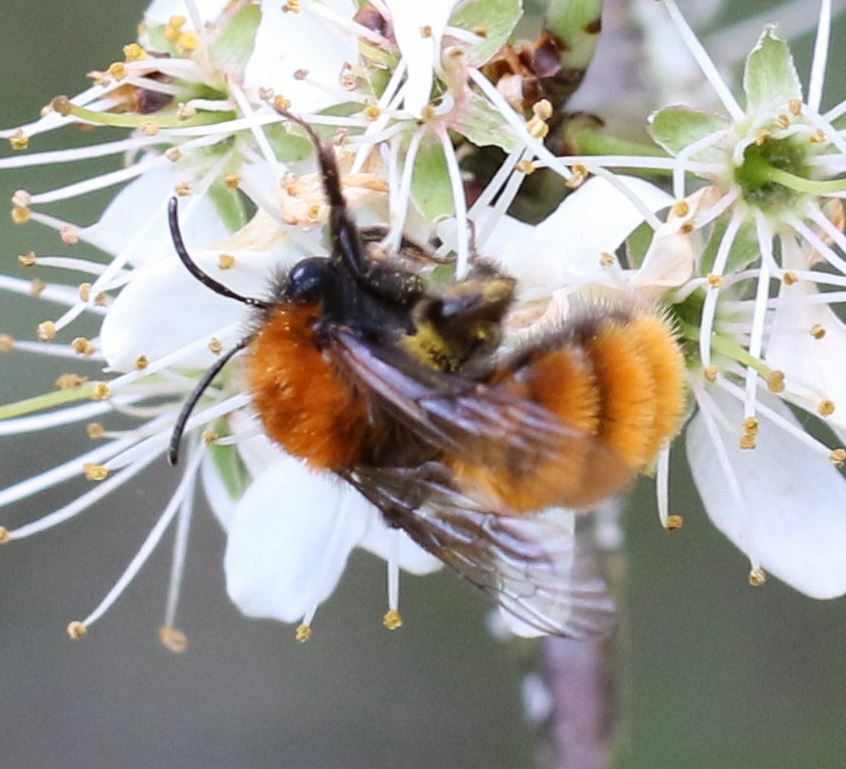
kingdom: Animalia
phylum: Arthropoda
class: Insecta
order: Hymenoptera
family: Andrenidae
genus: Andrena
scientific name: Andrena fulva
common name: Tawny mining bee
